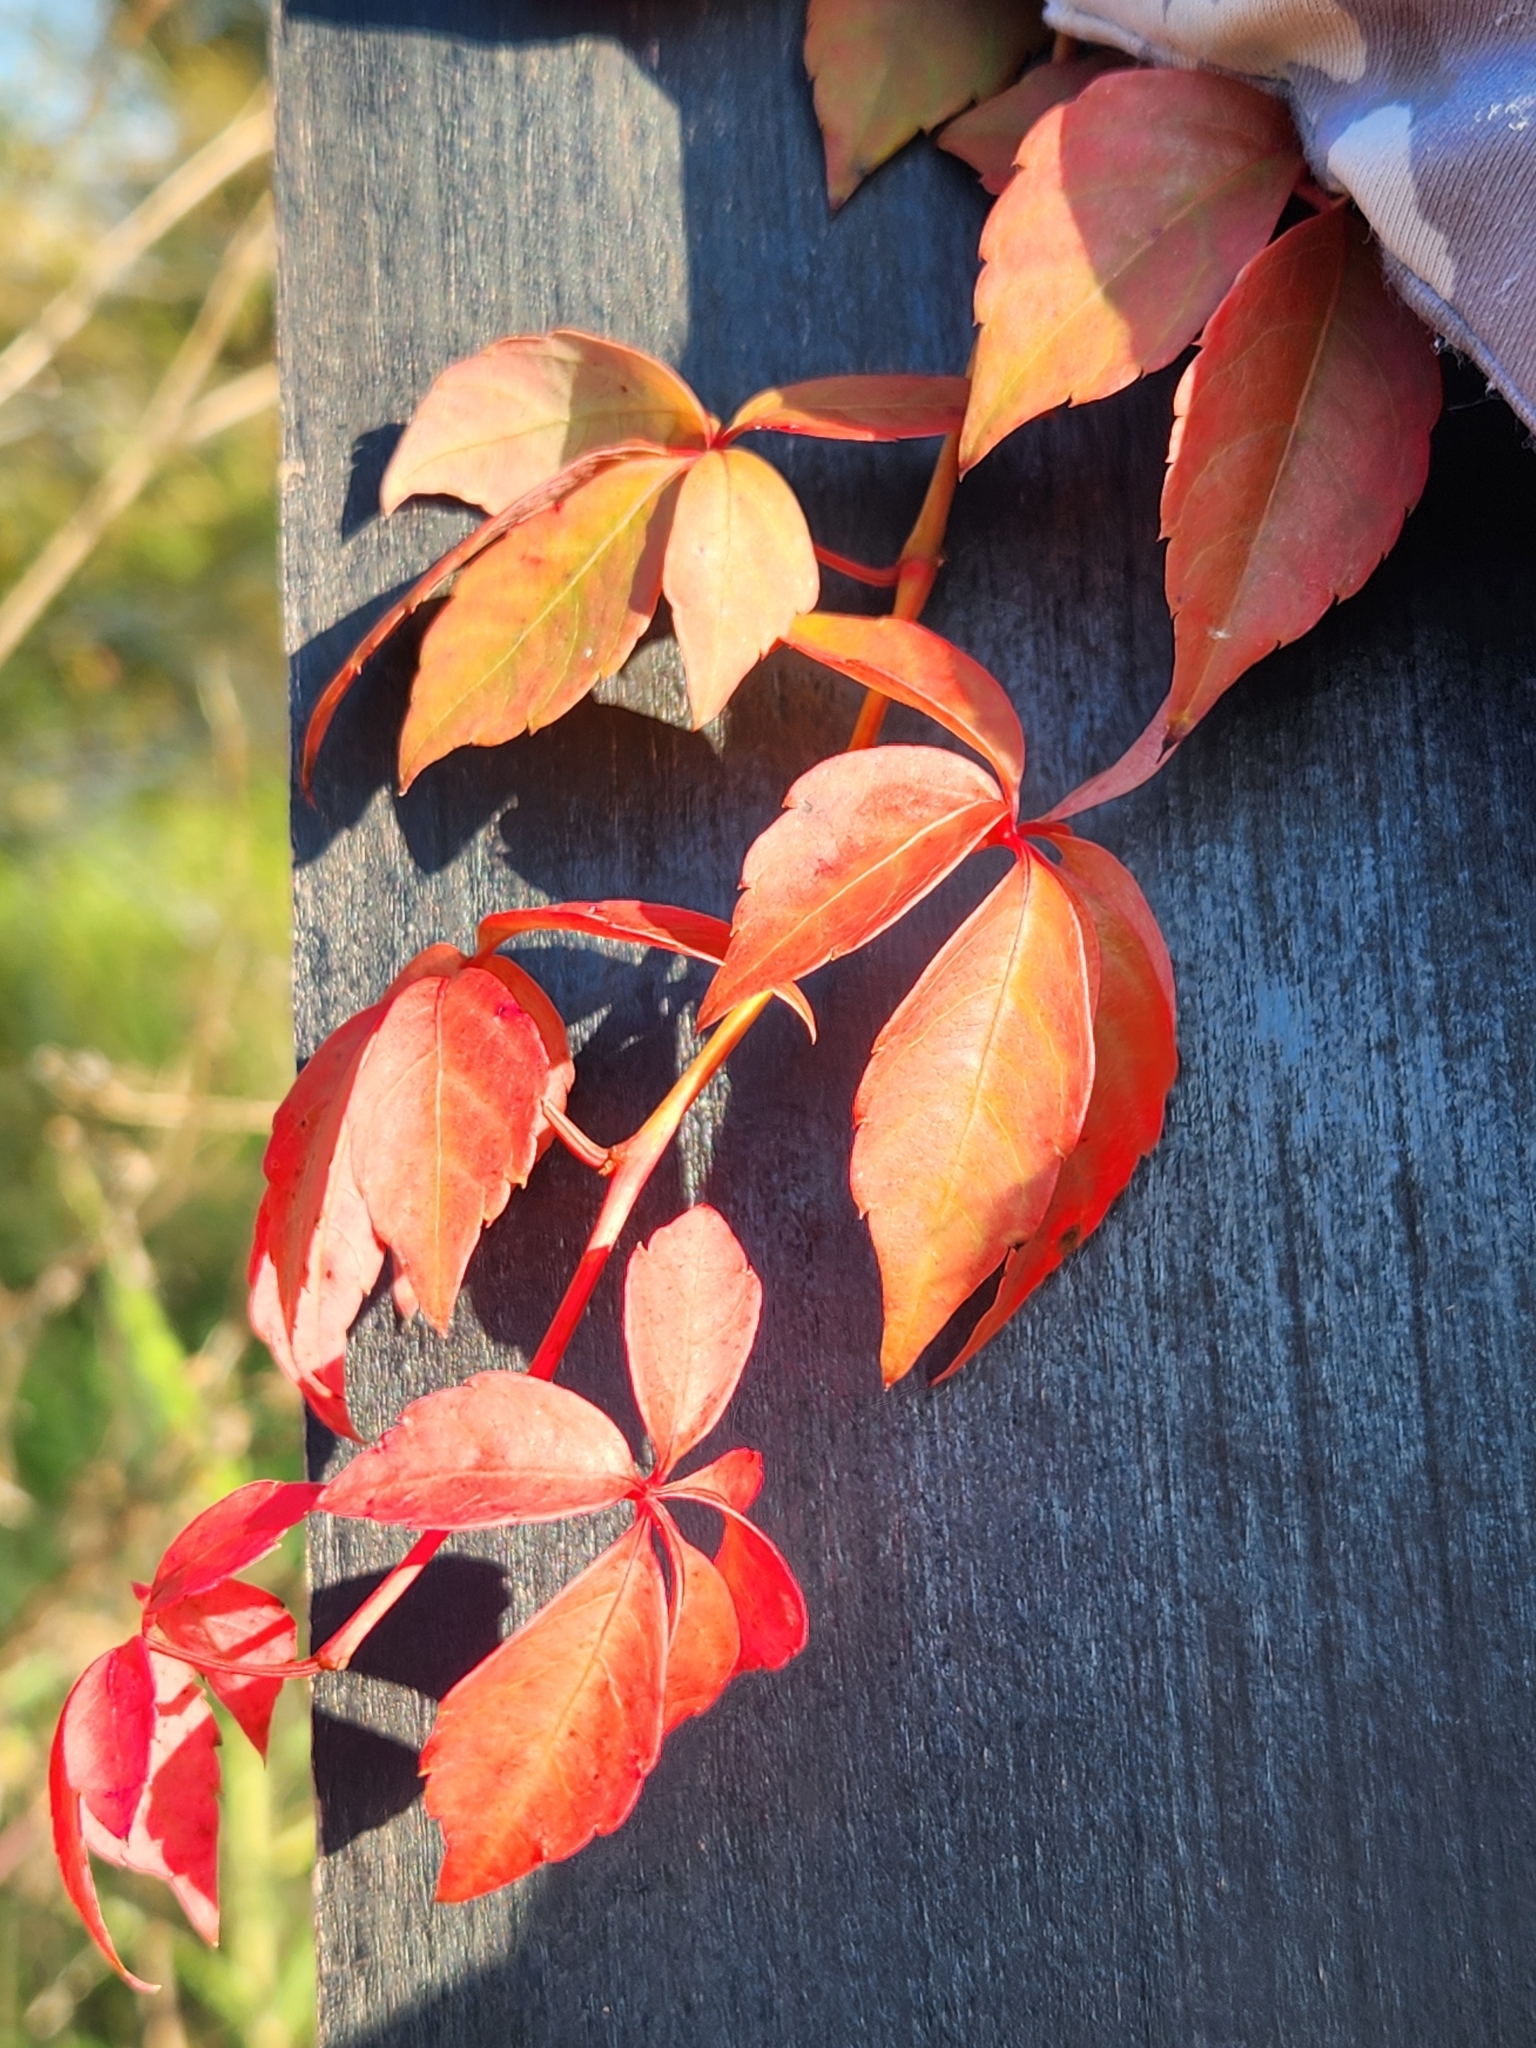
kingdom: Plantae
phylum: Tracheophyta
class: Magnoliopsida
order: Vitales
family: Vitaceae
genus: Parthenocissus
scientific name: Parthenocissus quinquefolia
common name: Virginia-creeper
